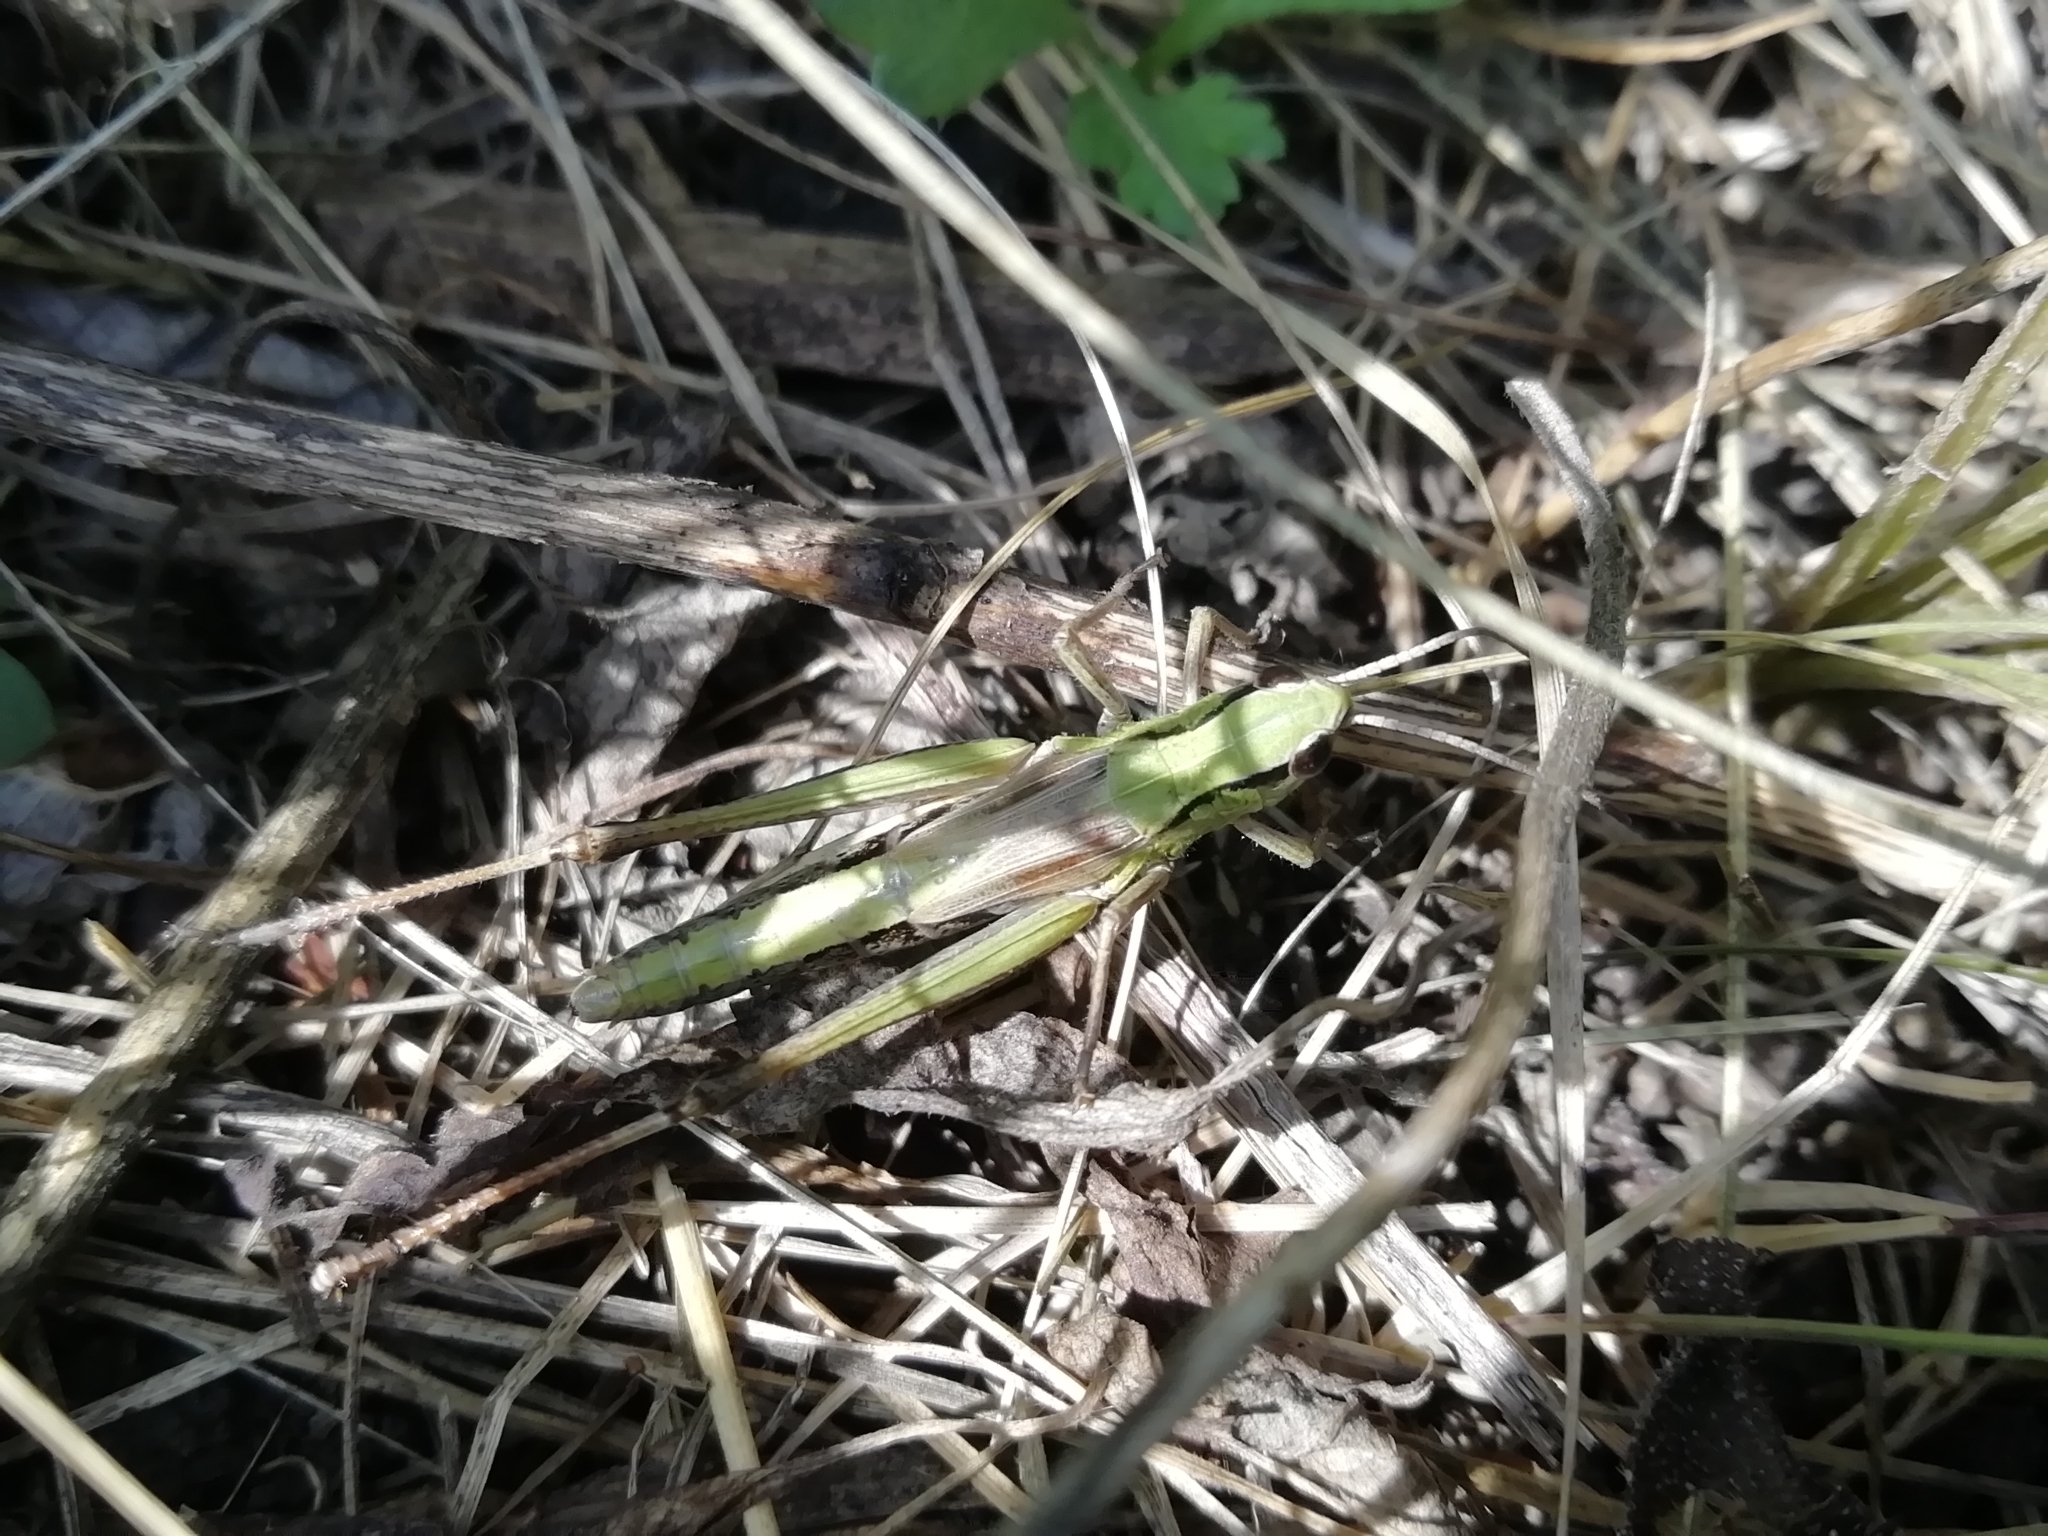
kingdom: Animalia
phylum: Arthropoda
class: Insecta
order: Orthoptera
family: Acrididae
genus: Pseudochorthippus
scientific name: Pseudochorthippus parallelus
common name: Meadow grasshopper
